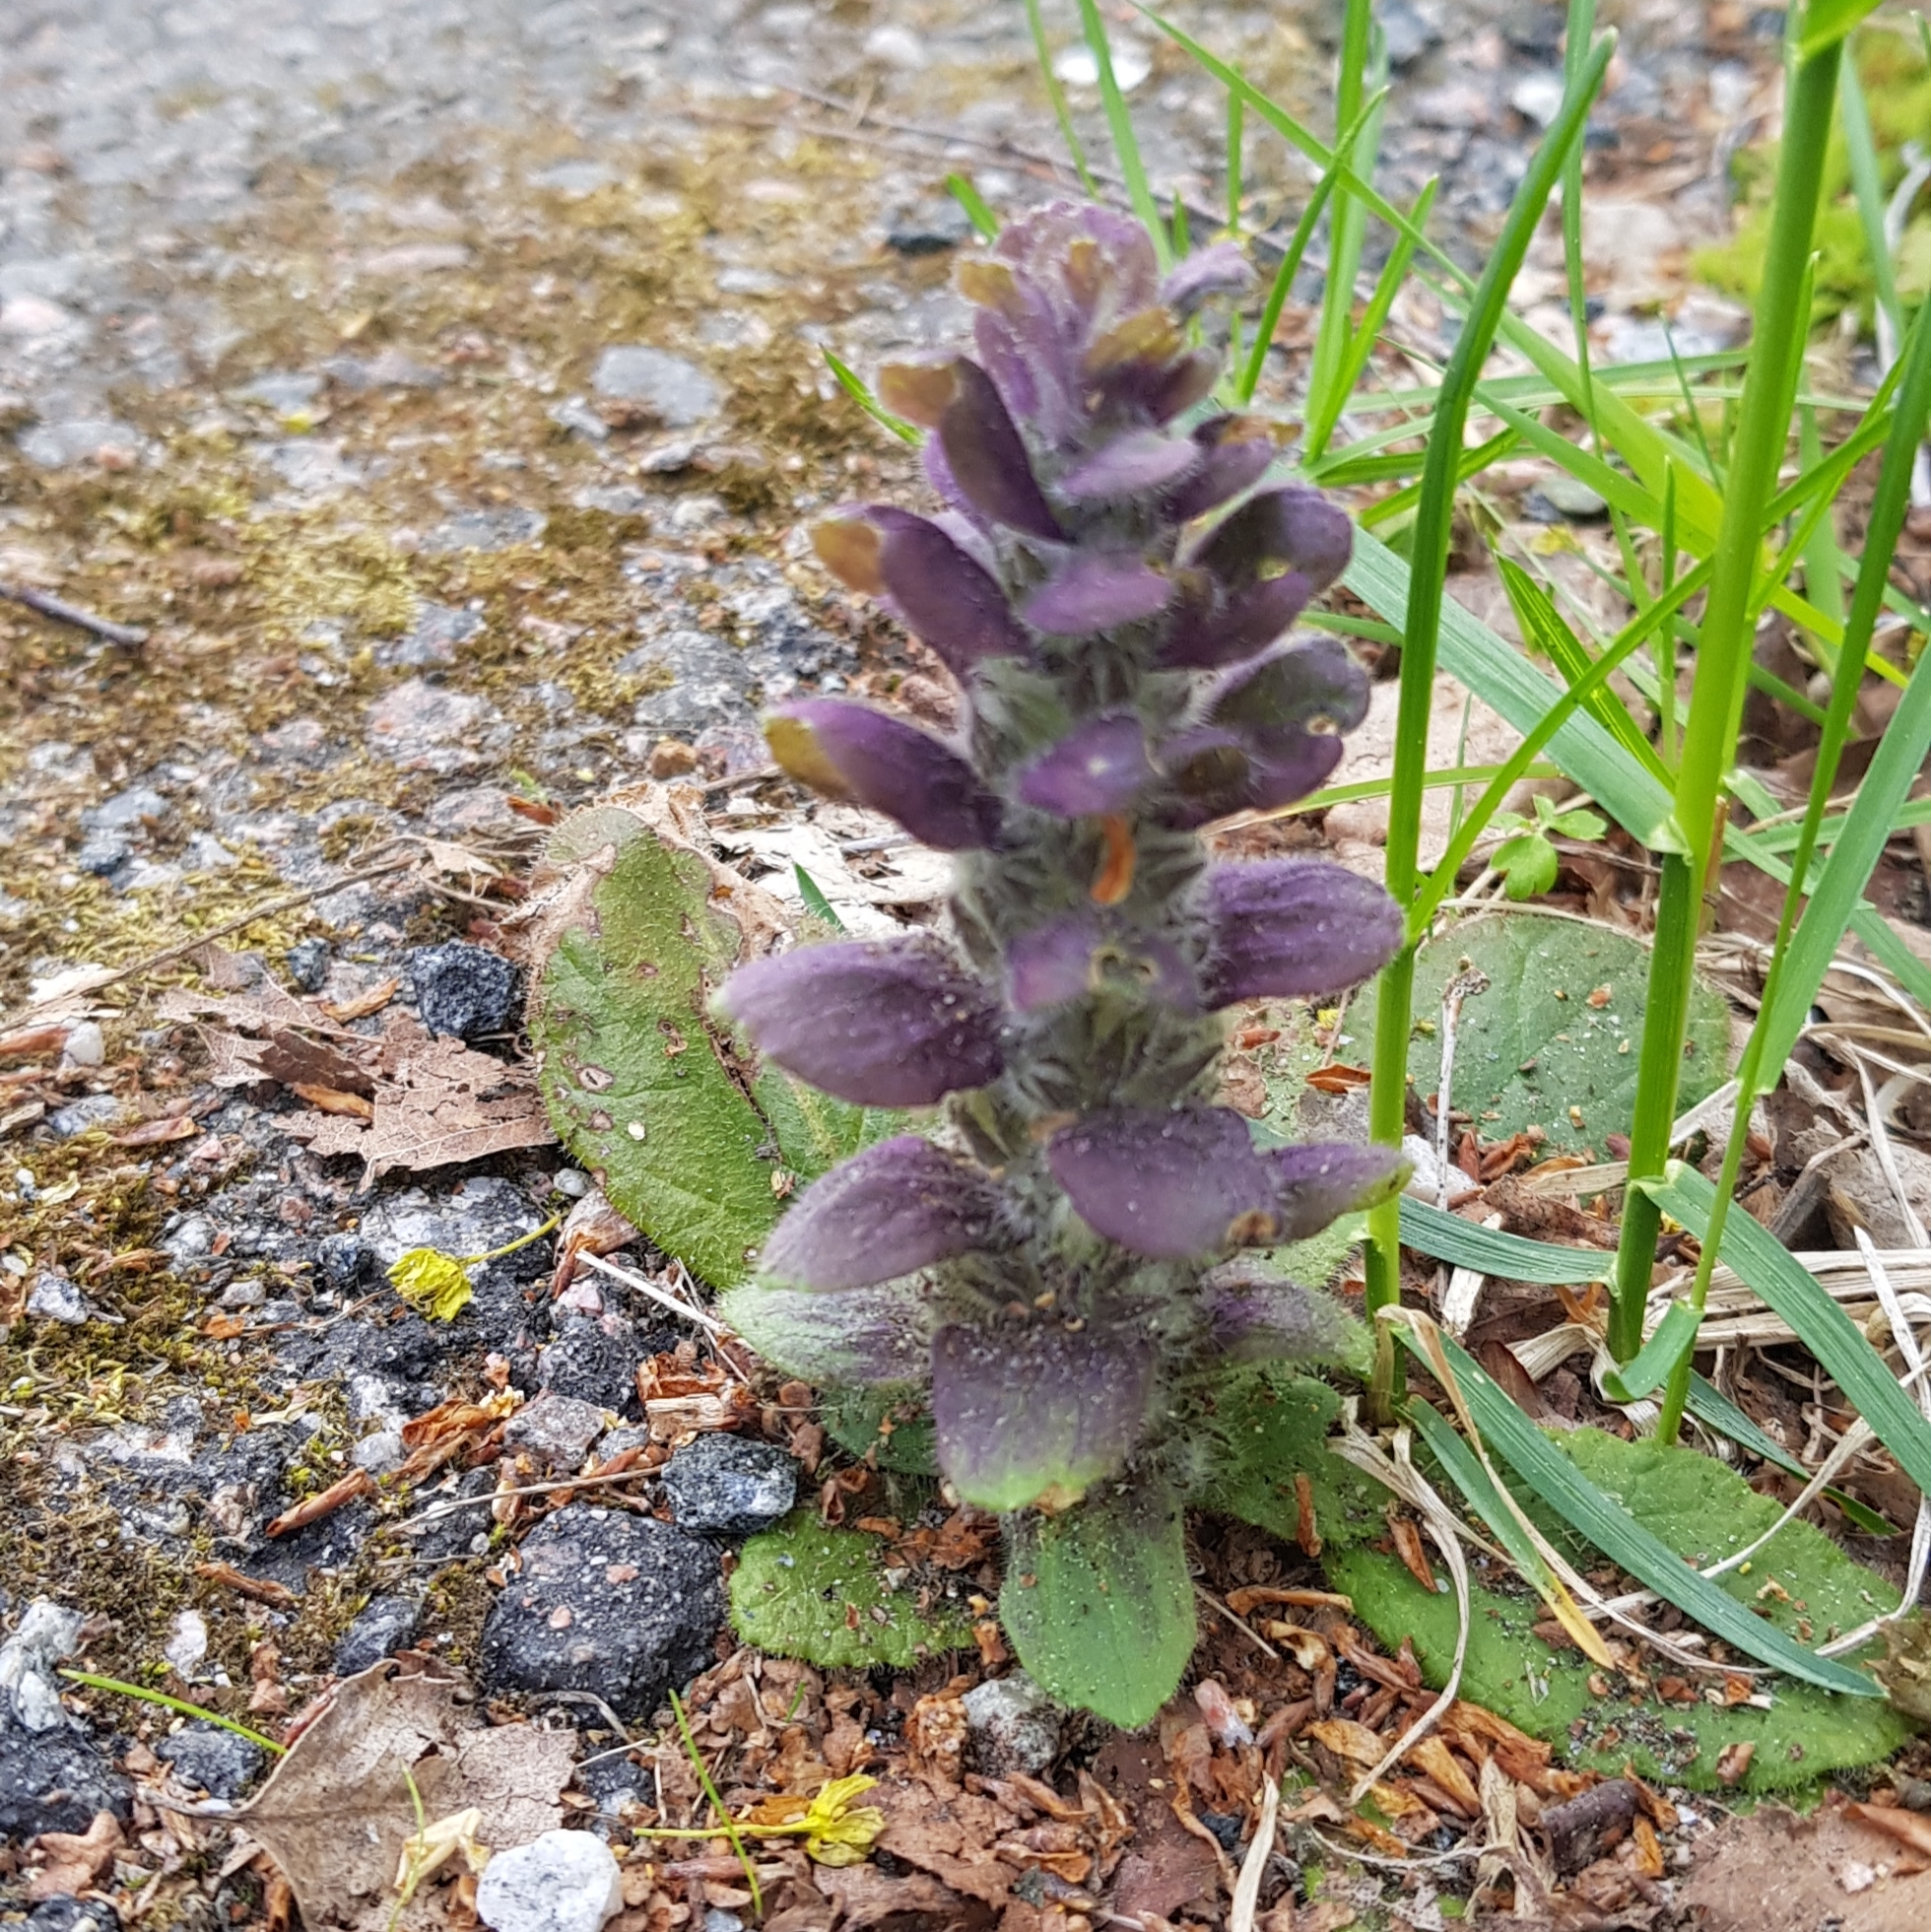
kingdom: Plantae
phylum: Tracheophyta
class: Magnoliopsida
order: Lamiales
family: Lamiaceae
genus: Ajuga
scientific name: Ajuga pyramidalis
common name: Pyramid bugle
